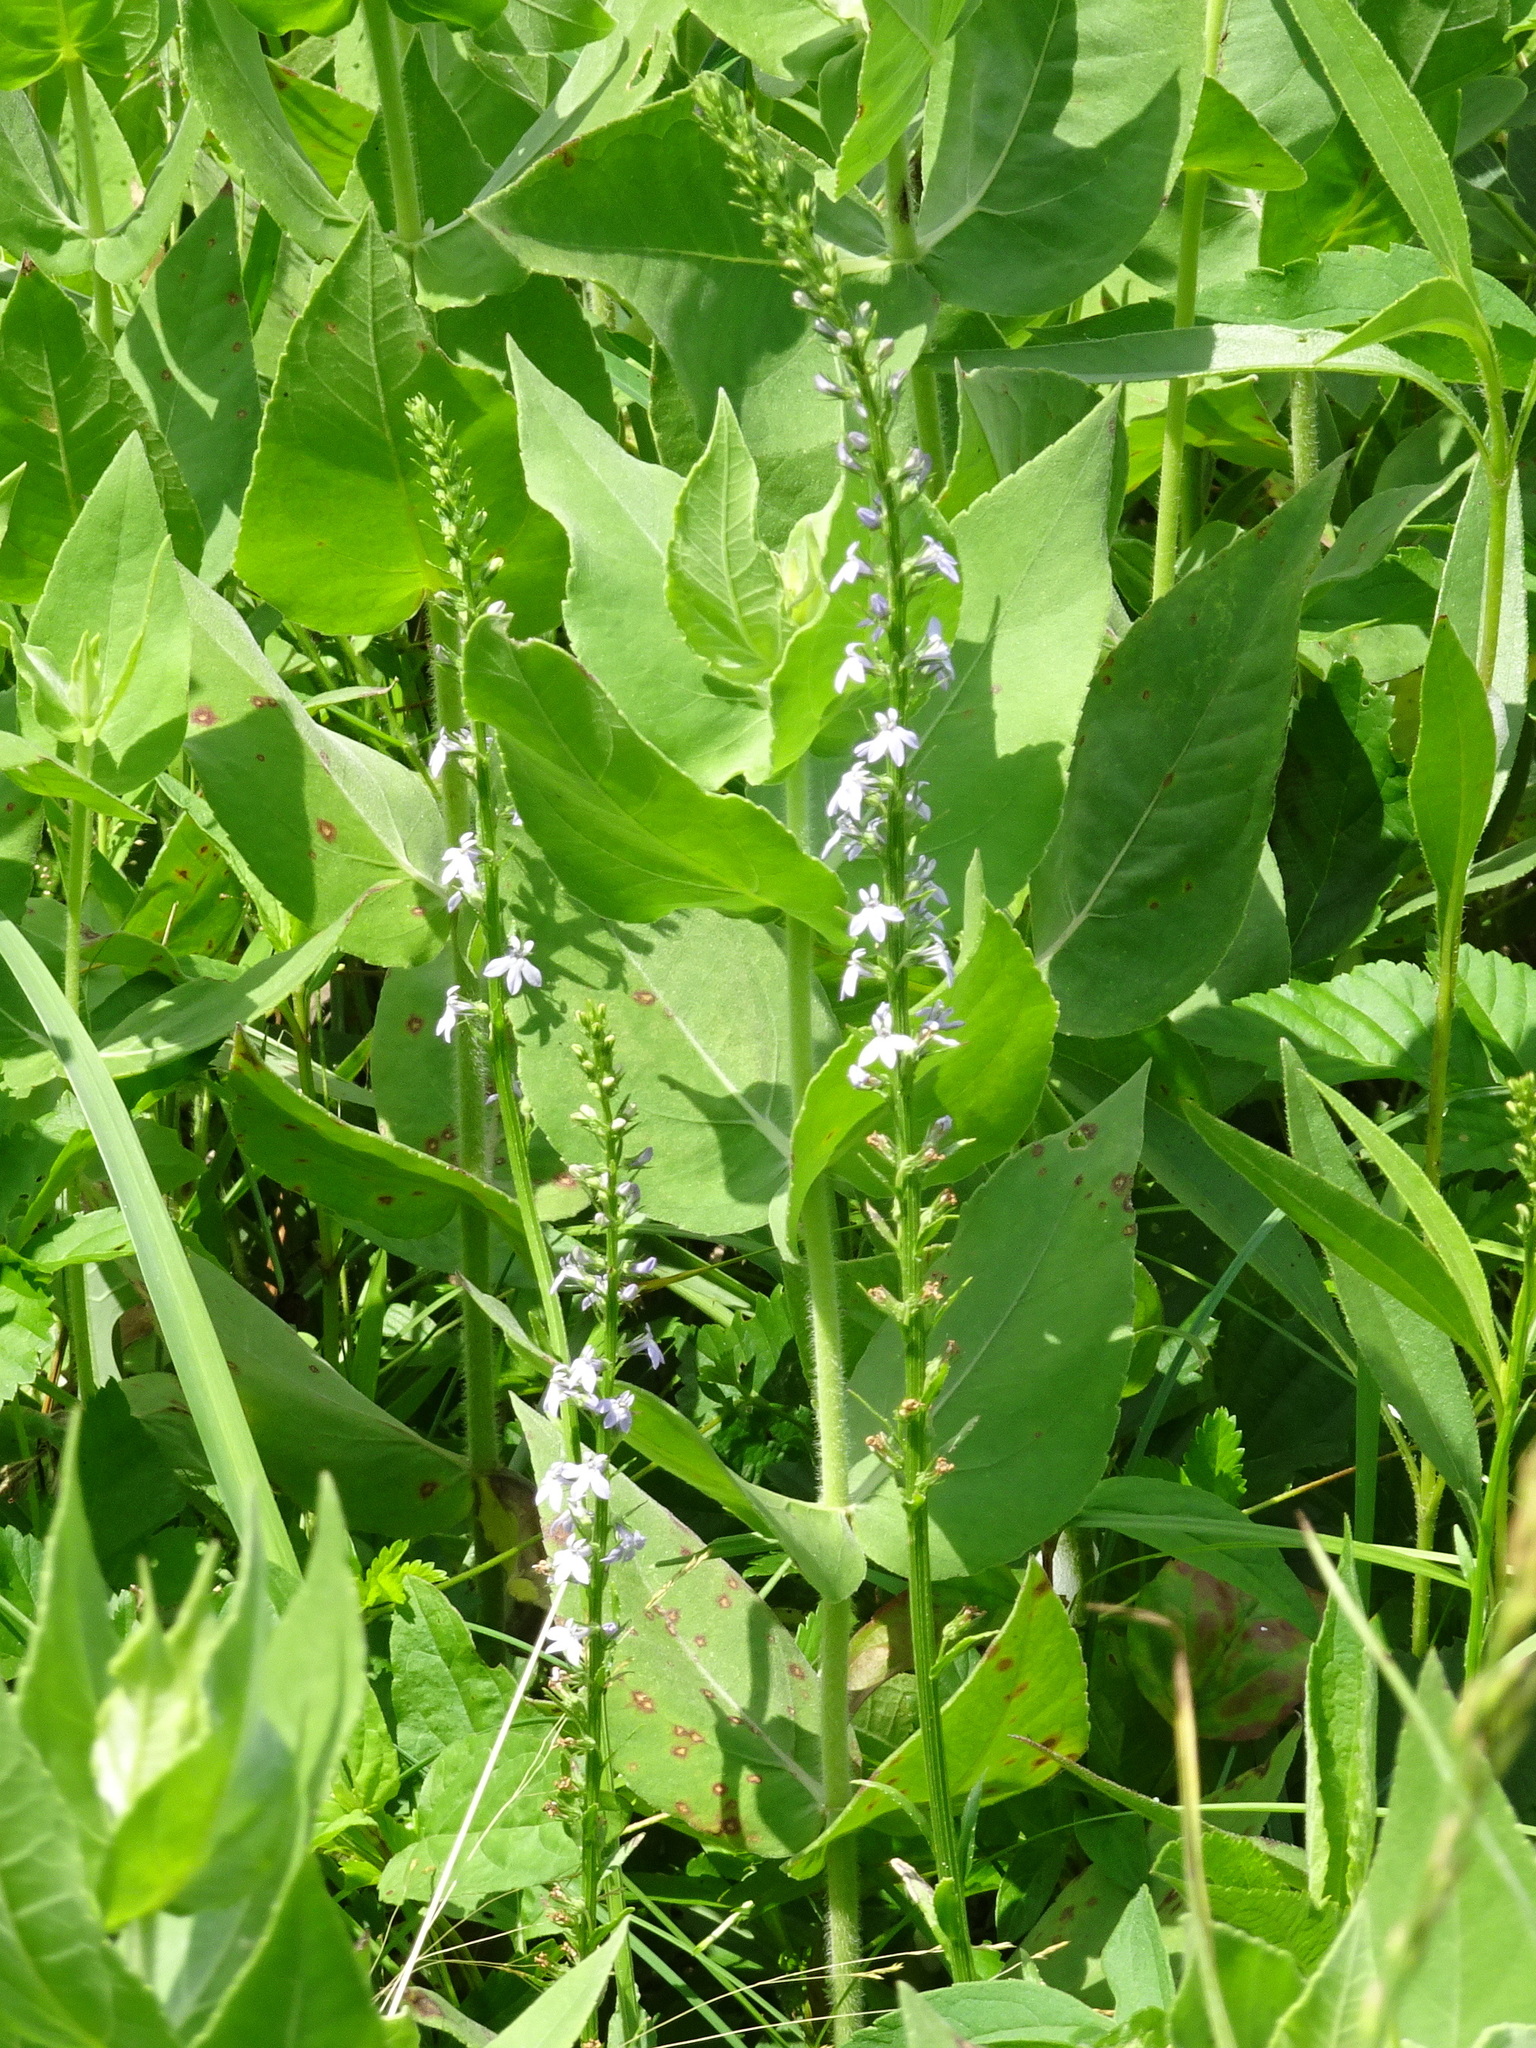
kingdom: Plantae
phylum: Tracheophyta
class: Magnoliopsida
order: Asterales
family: Campanulaceae
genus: Lobelia
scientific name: Lobelia spicata
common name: Pale-spike lobelia
